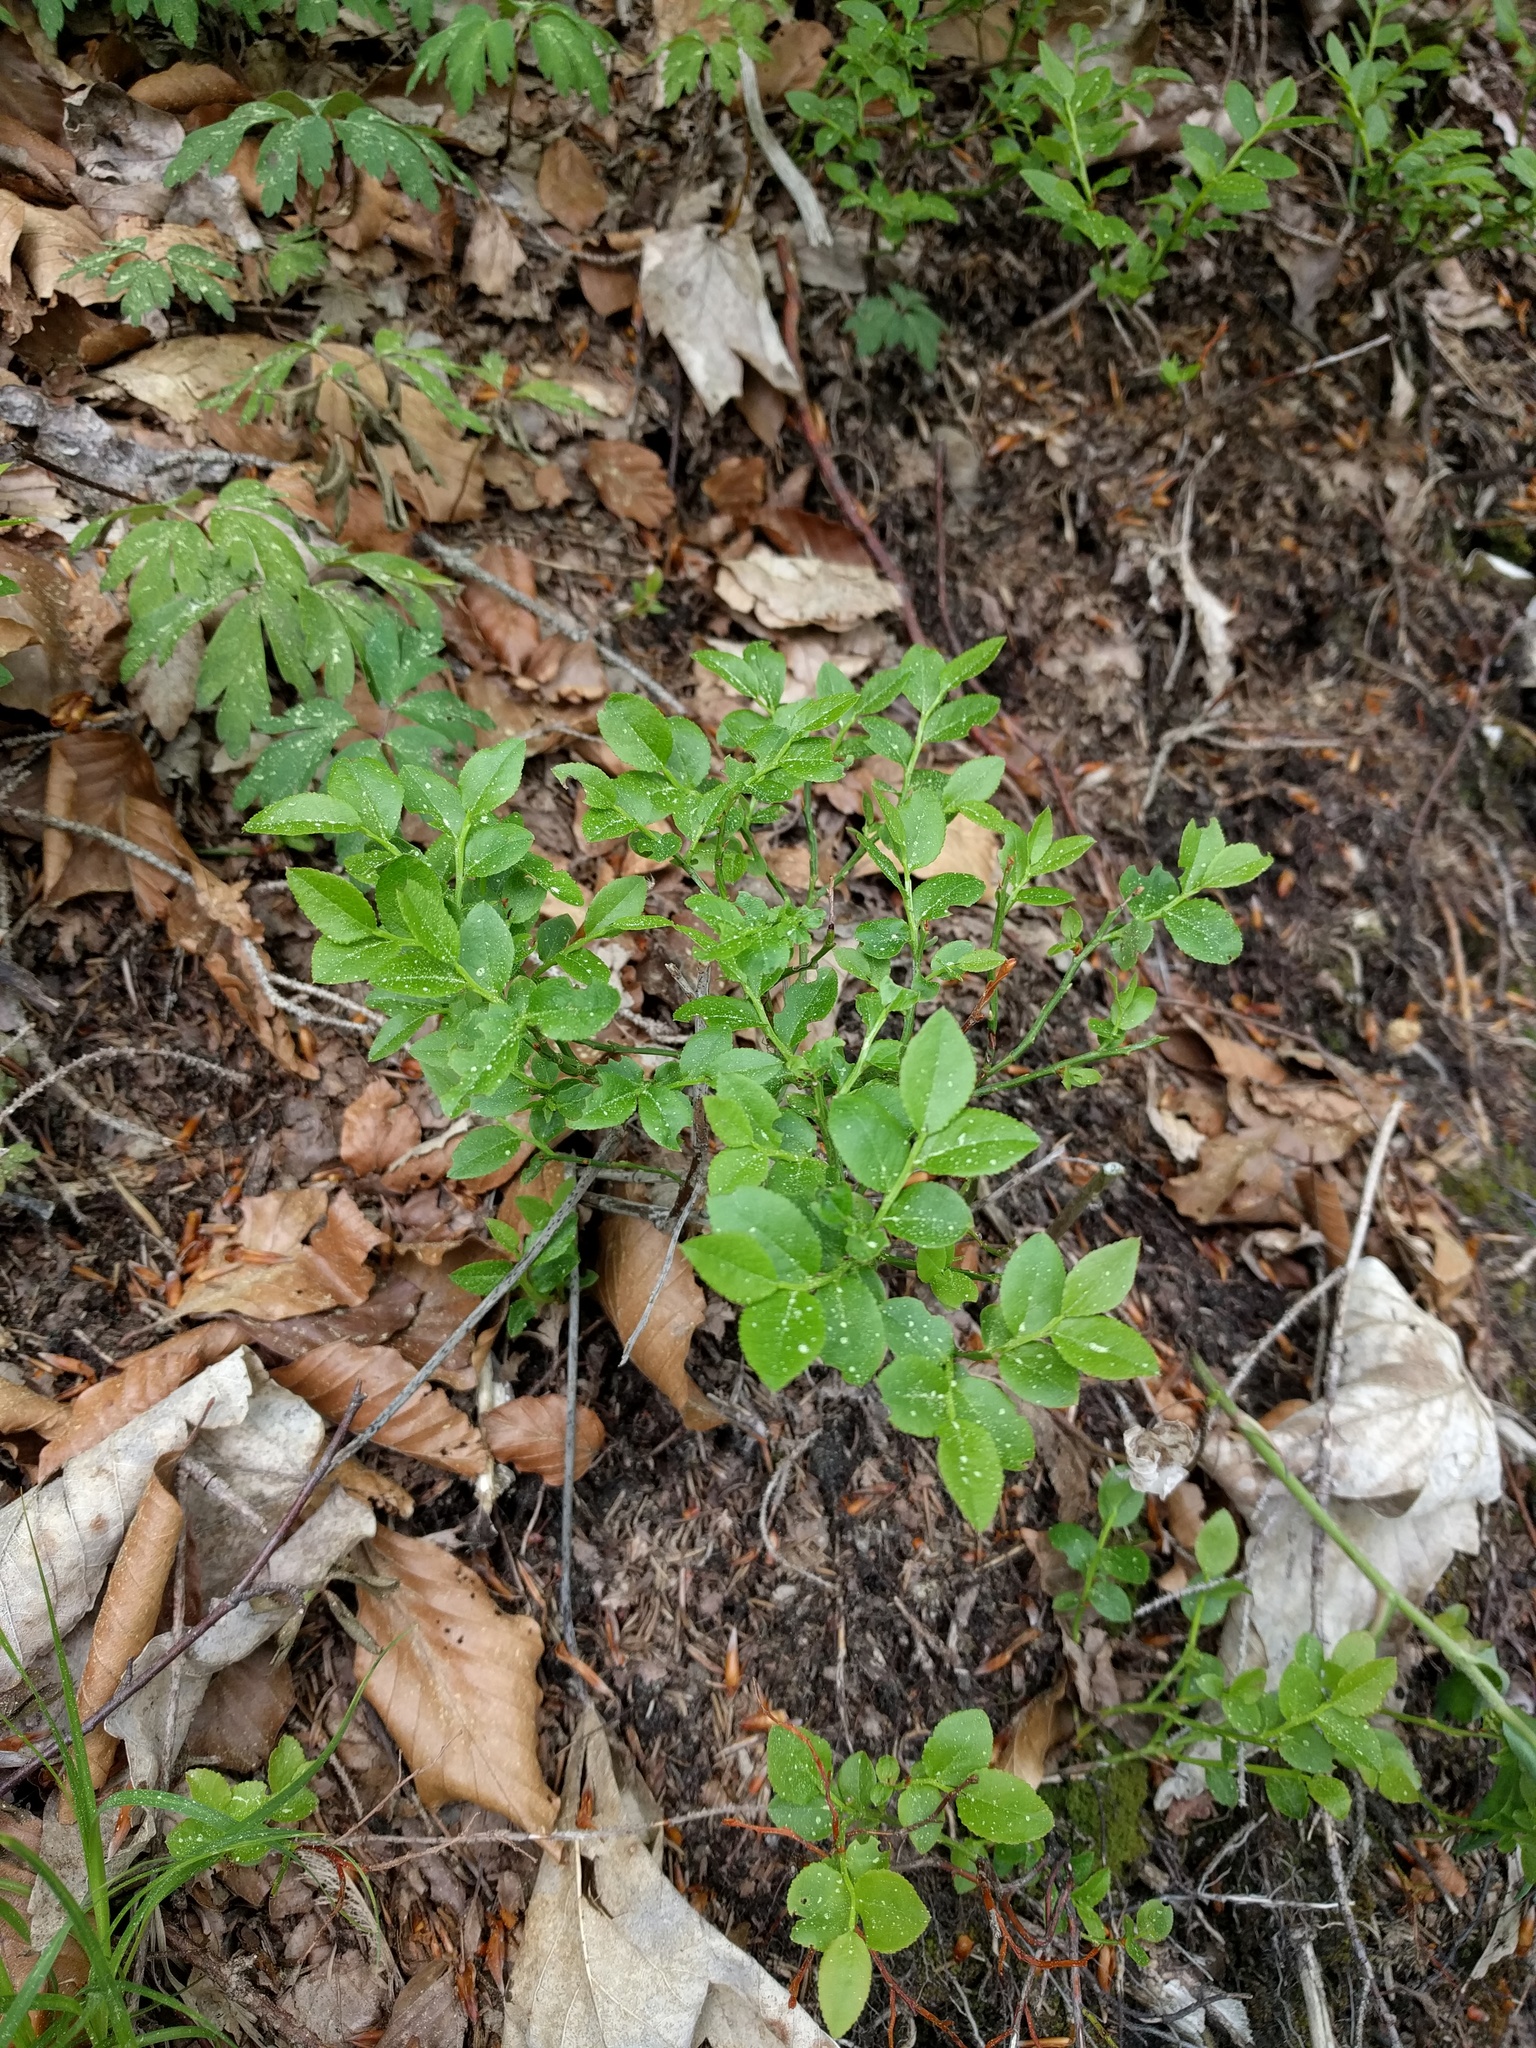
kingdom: Plantae
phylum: Tracheophyta
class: Magnoliopsida
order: Ericales
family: Ericaceae
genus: Vaccinium
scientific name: Vaccinium myrtillus
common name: Bilberry
